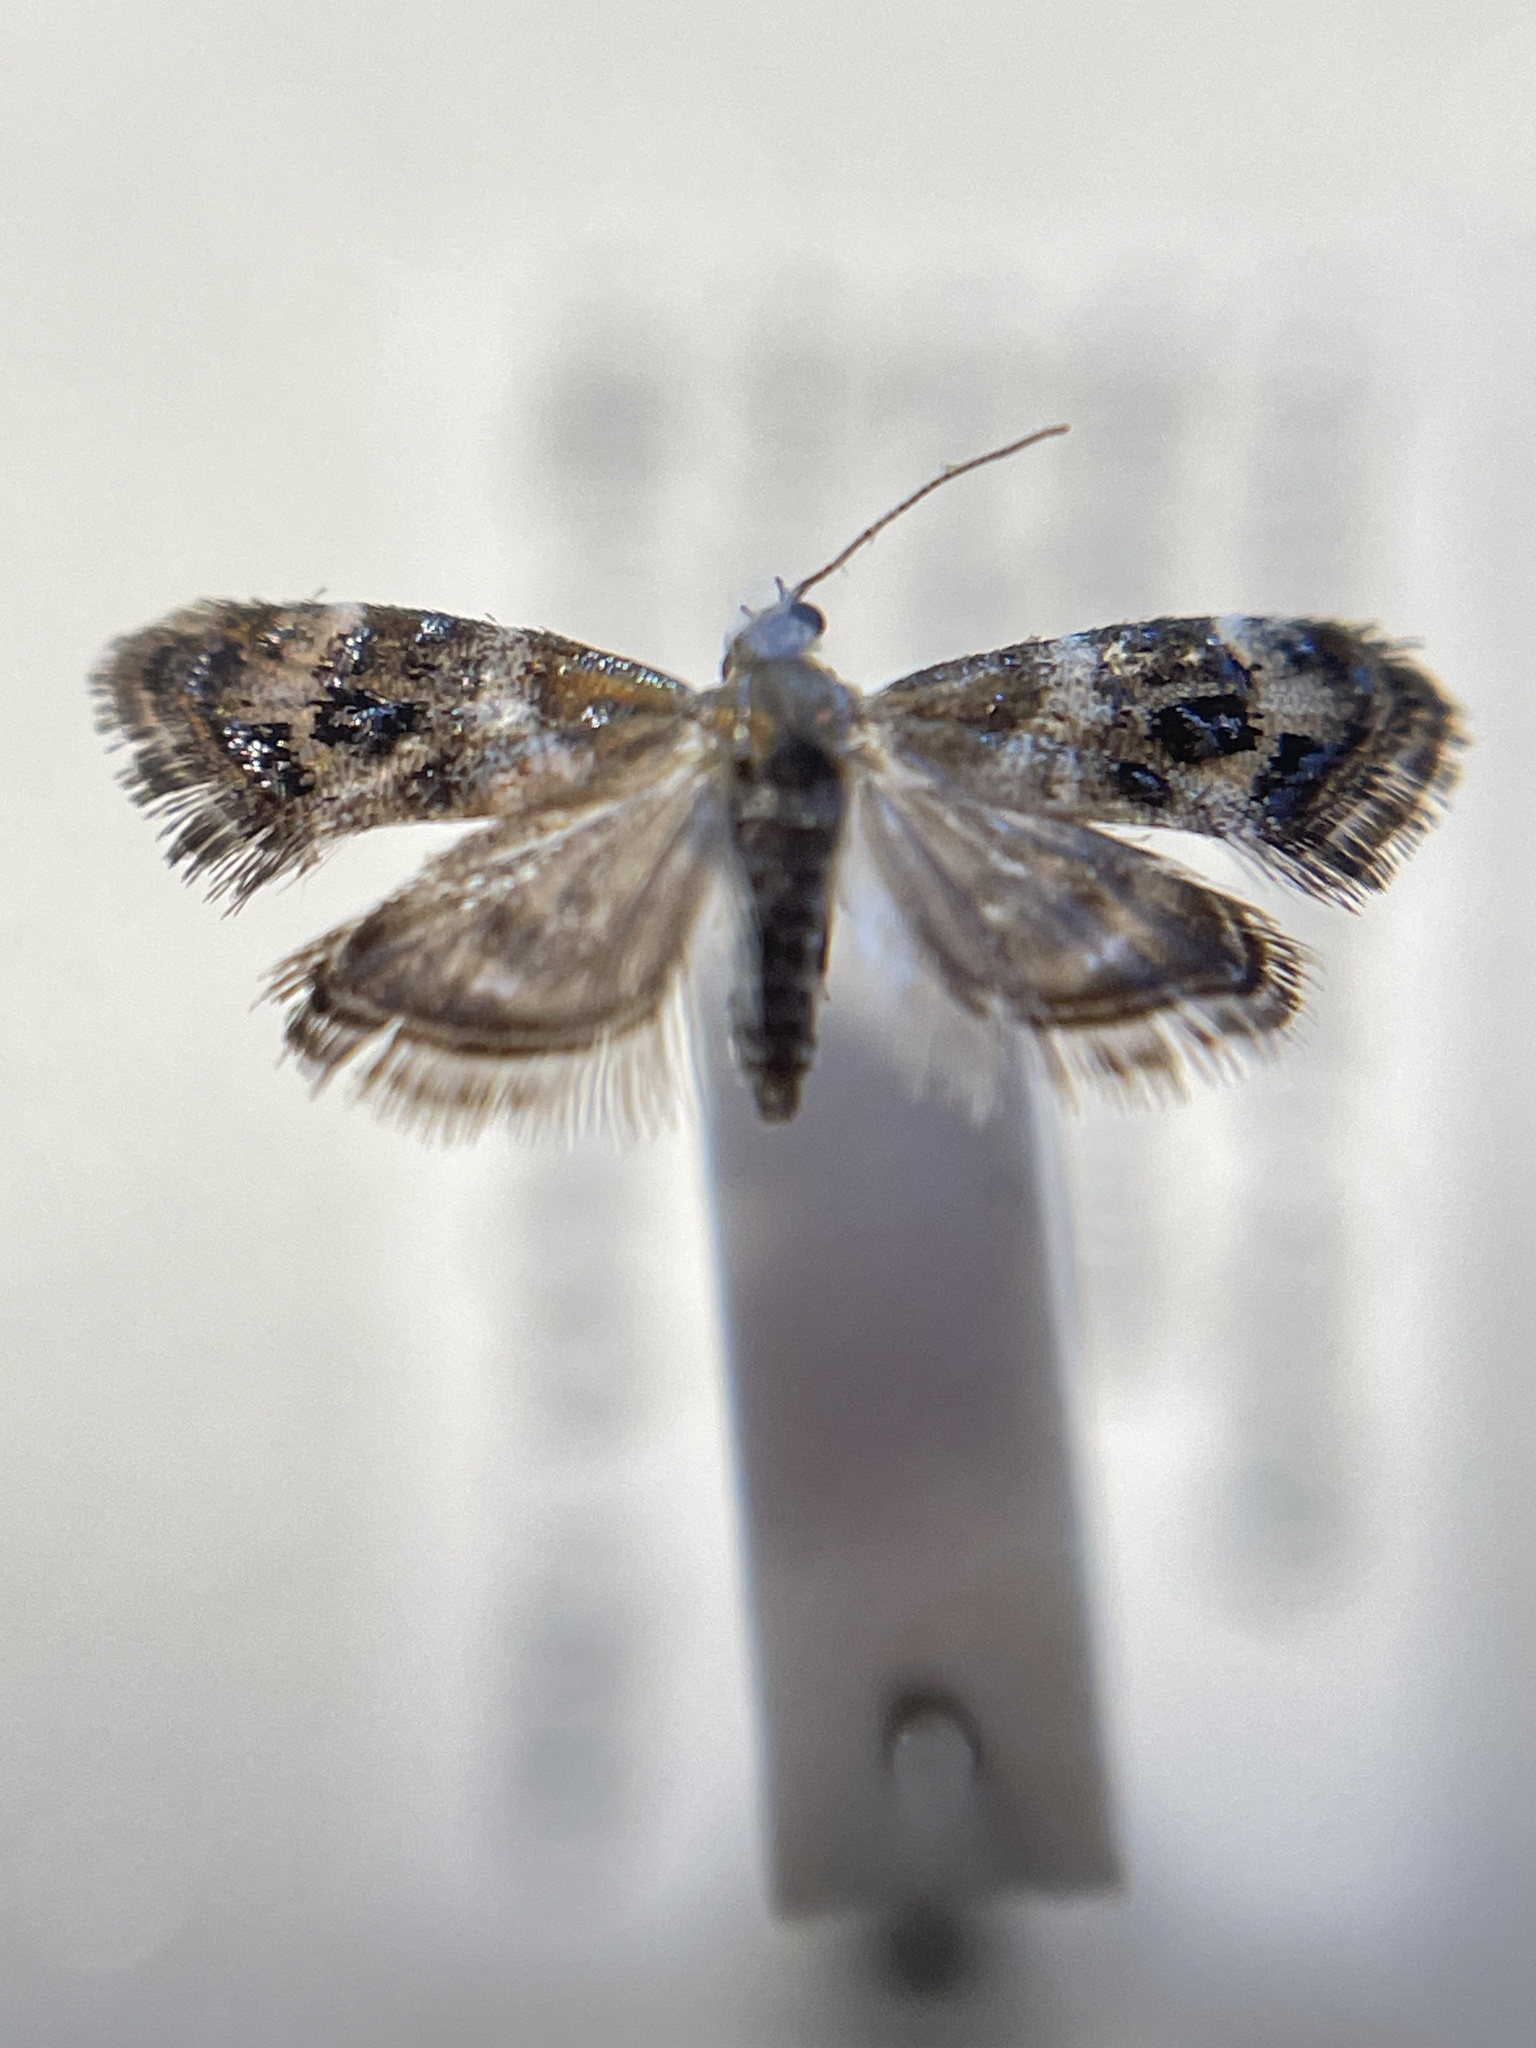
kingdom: Animalia
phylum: Arthropoda
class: Insecta
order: Lepidoptera
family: Choreutidae
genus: Tebenna
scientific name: Tebenna micalis
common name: Vagrant twitcher
